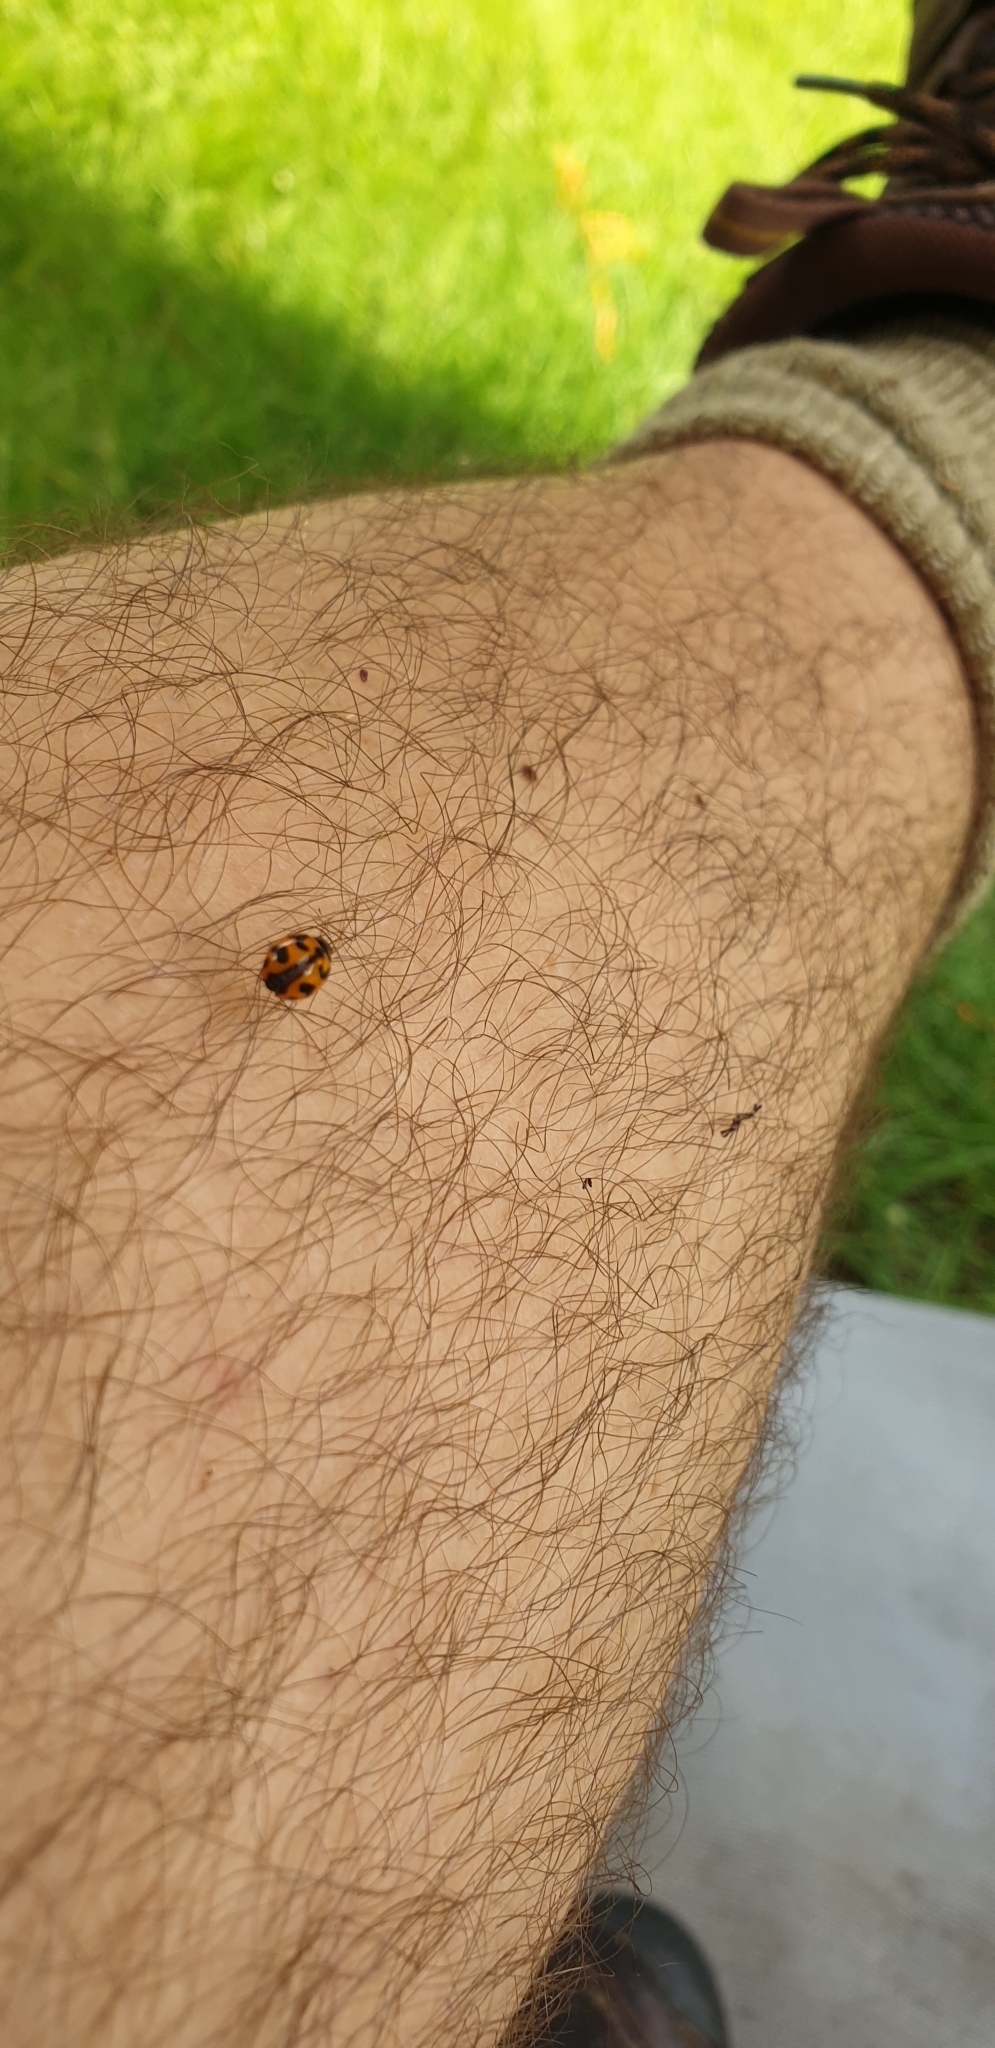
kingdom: Animalia
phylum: Arthropoda
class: Insecta
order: Coleoptera
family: Coccinellidae
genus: Coccinella
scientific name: Coccinella transversalis
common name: Transverse lady beetle
